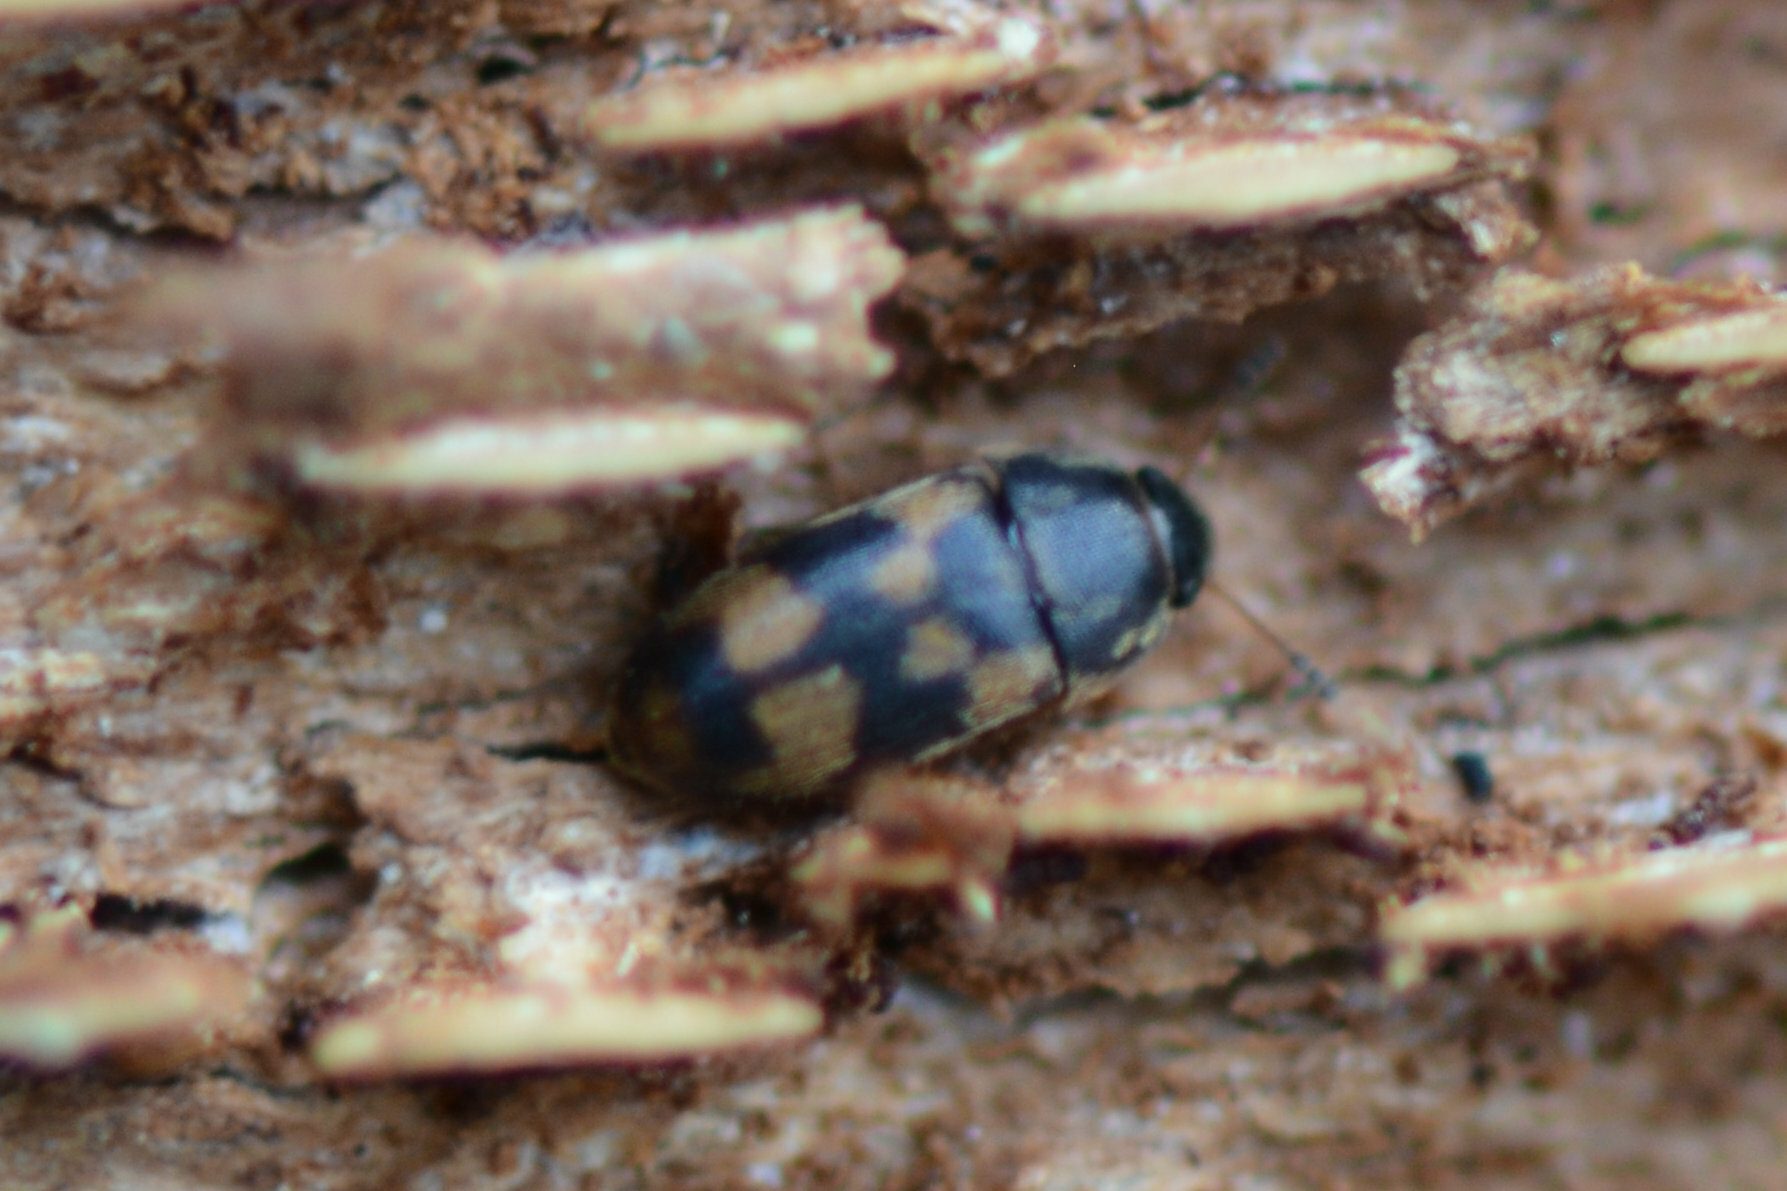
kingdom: Animalia
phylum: Arthropoda
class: Insecta
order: Coleoptera
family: Mycetophagidae
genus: Litargus
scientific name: Litargus connexus
